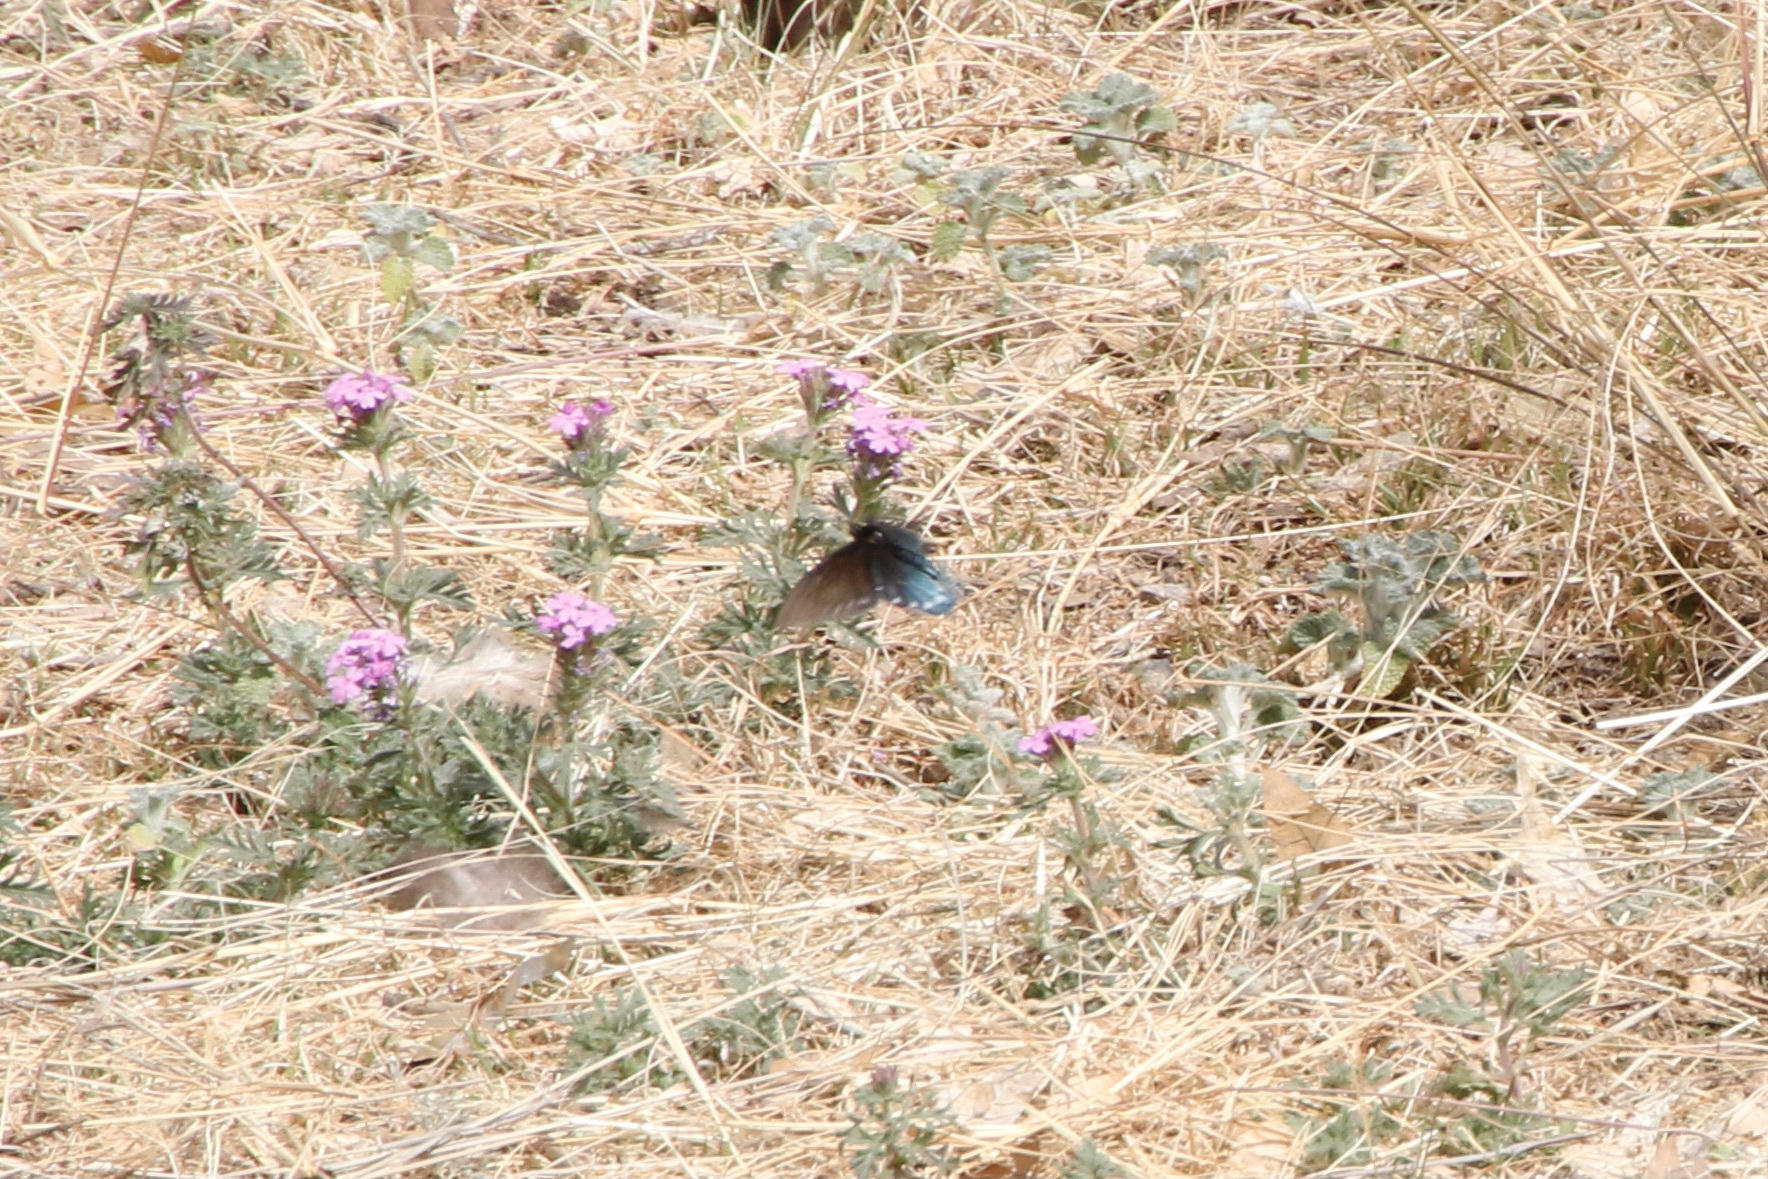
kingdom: Animalia
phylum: Arthropoda
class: Insecta
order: Lepidoptera
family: Papilionidae
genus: Battus
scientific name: Battus philenor
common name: Pipevine swallowtail
